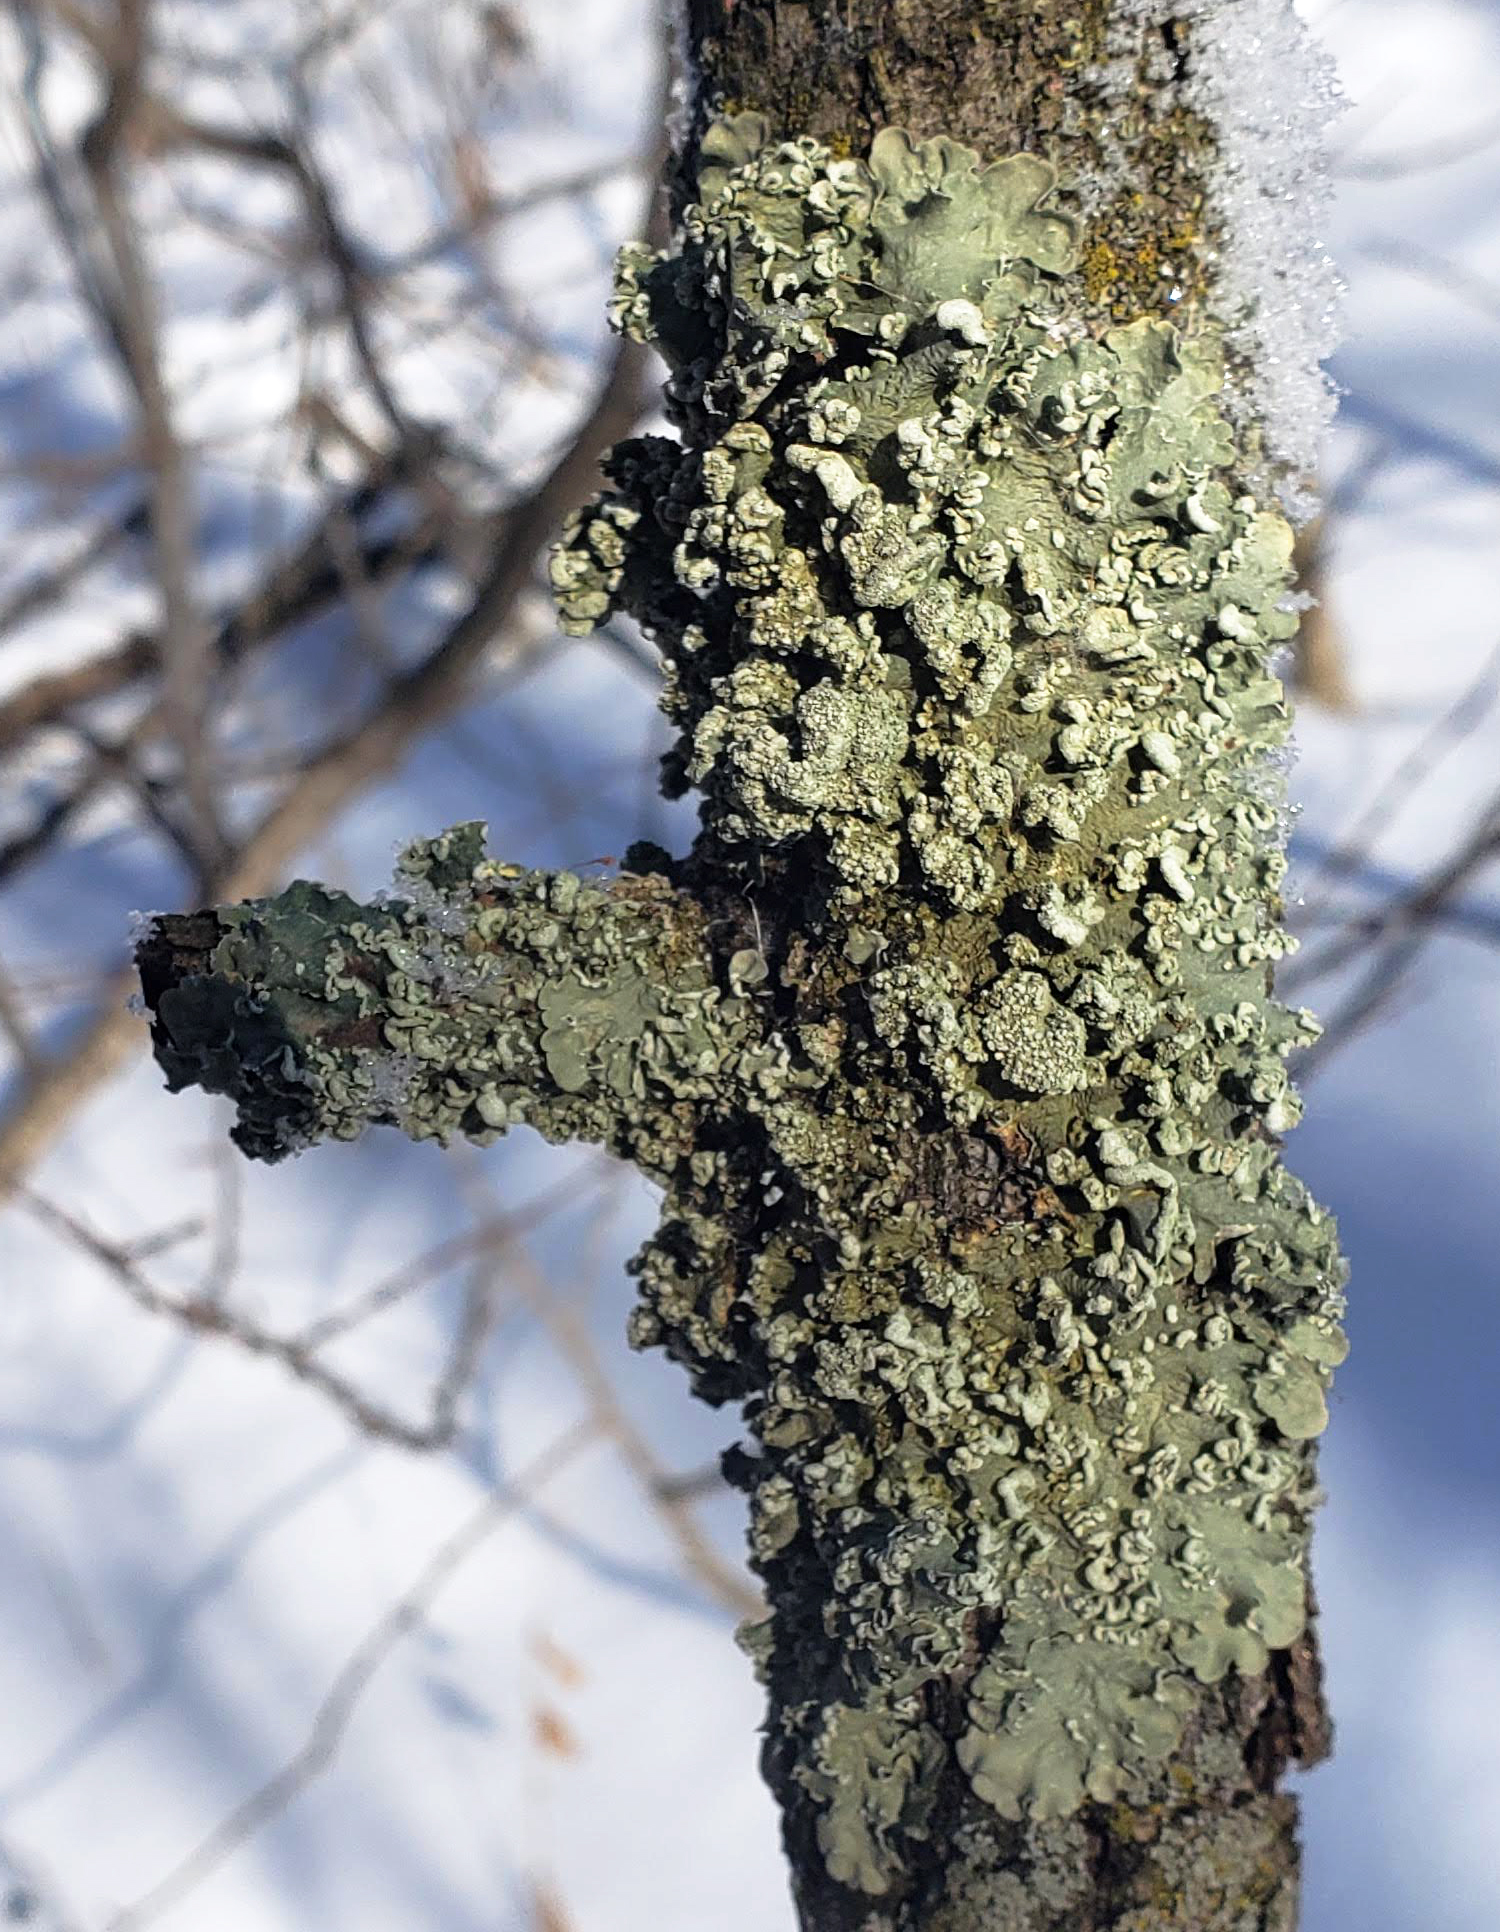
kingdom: Fungi
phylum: Ascomycota
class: Lecanoromycetes
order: Lecanorales
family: Parmeliaceae
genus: Flavopunctelia
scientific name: Flavopunctelia soredica
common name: Powder-edged speckled greenshield
